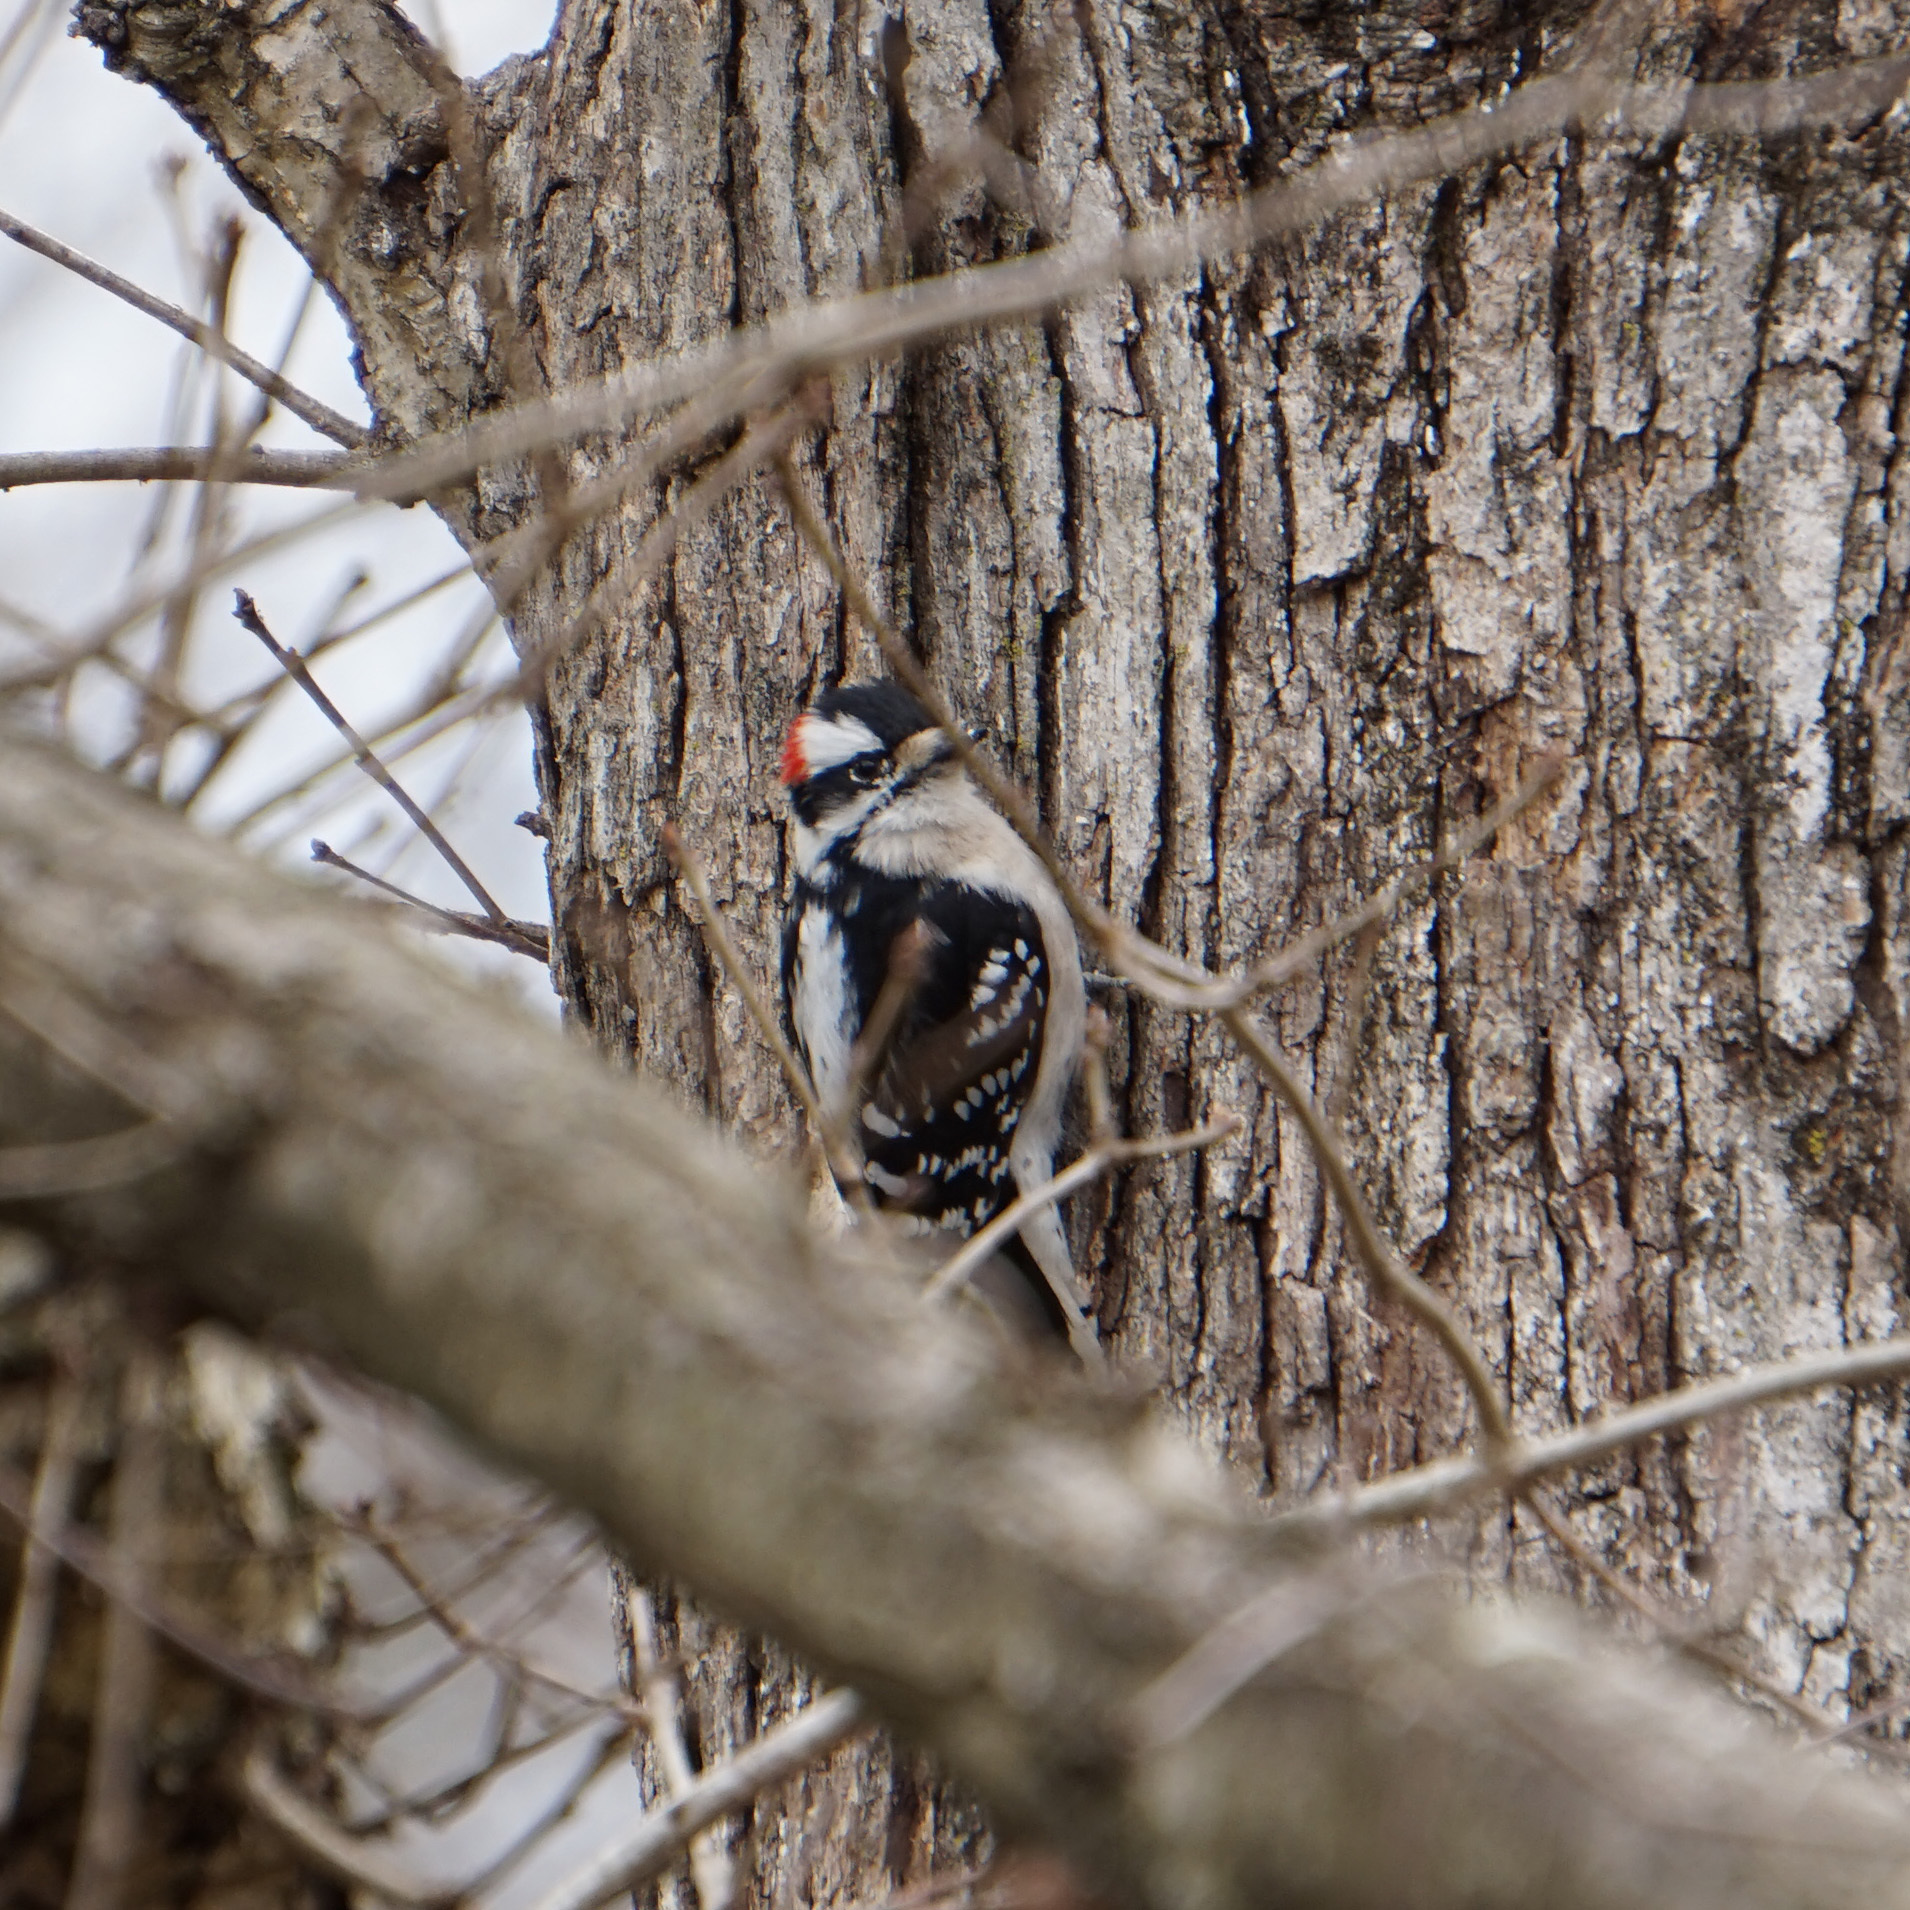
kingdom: Animalia
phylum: Chordata
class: Aves
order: Piciformes
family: Picidae
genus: Dryobates
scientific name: Dryobates pubescens
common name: Downy woodpecker
